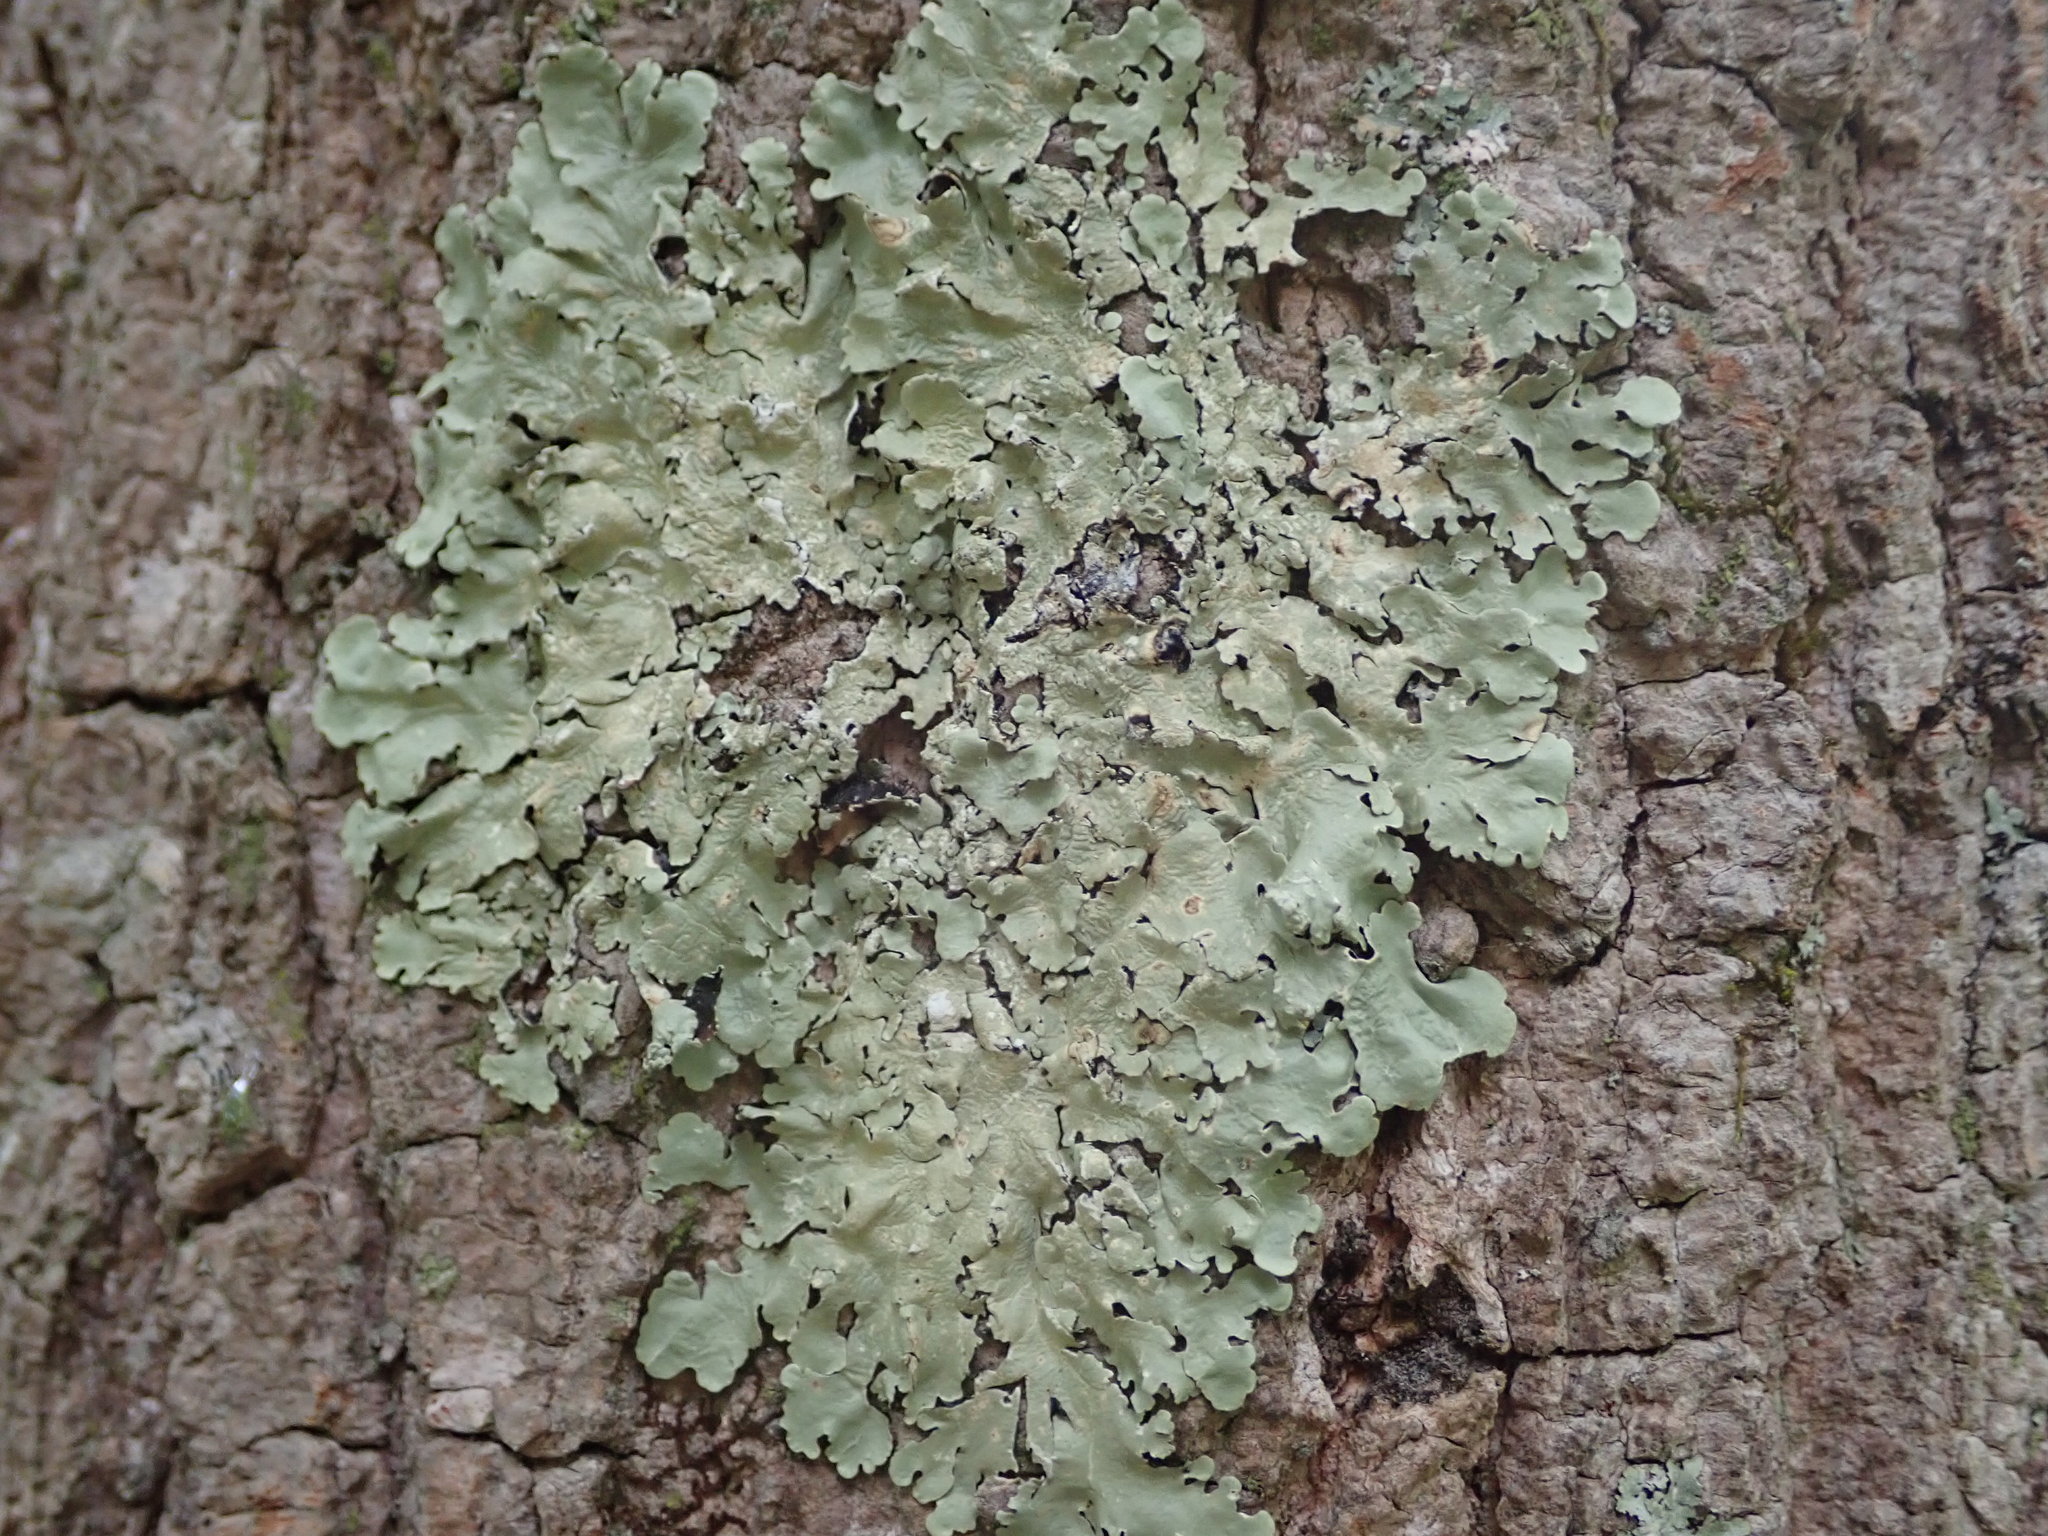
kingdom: Fungi
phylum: Ascomycota
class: Lecanoromycetes
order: Lecanorales
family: Parmeliaceae
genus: Flavoparmelia
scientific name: Flavoparmelia caperata
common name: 40-mile per hour lichen
